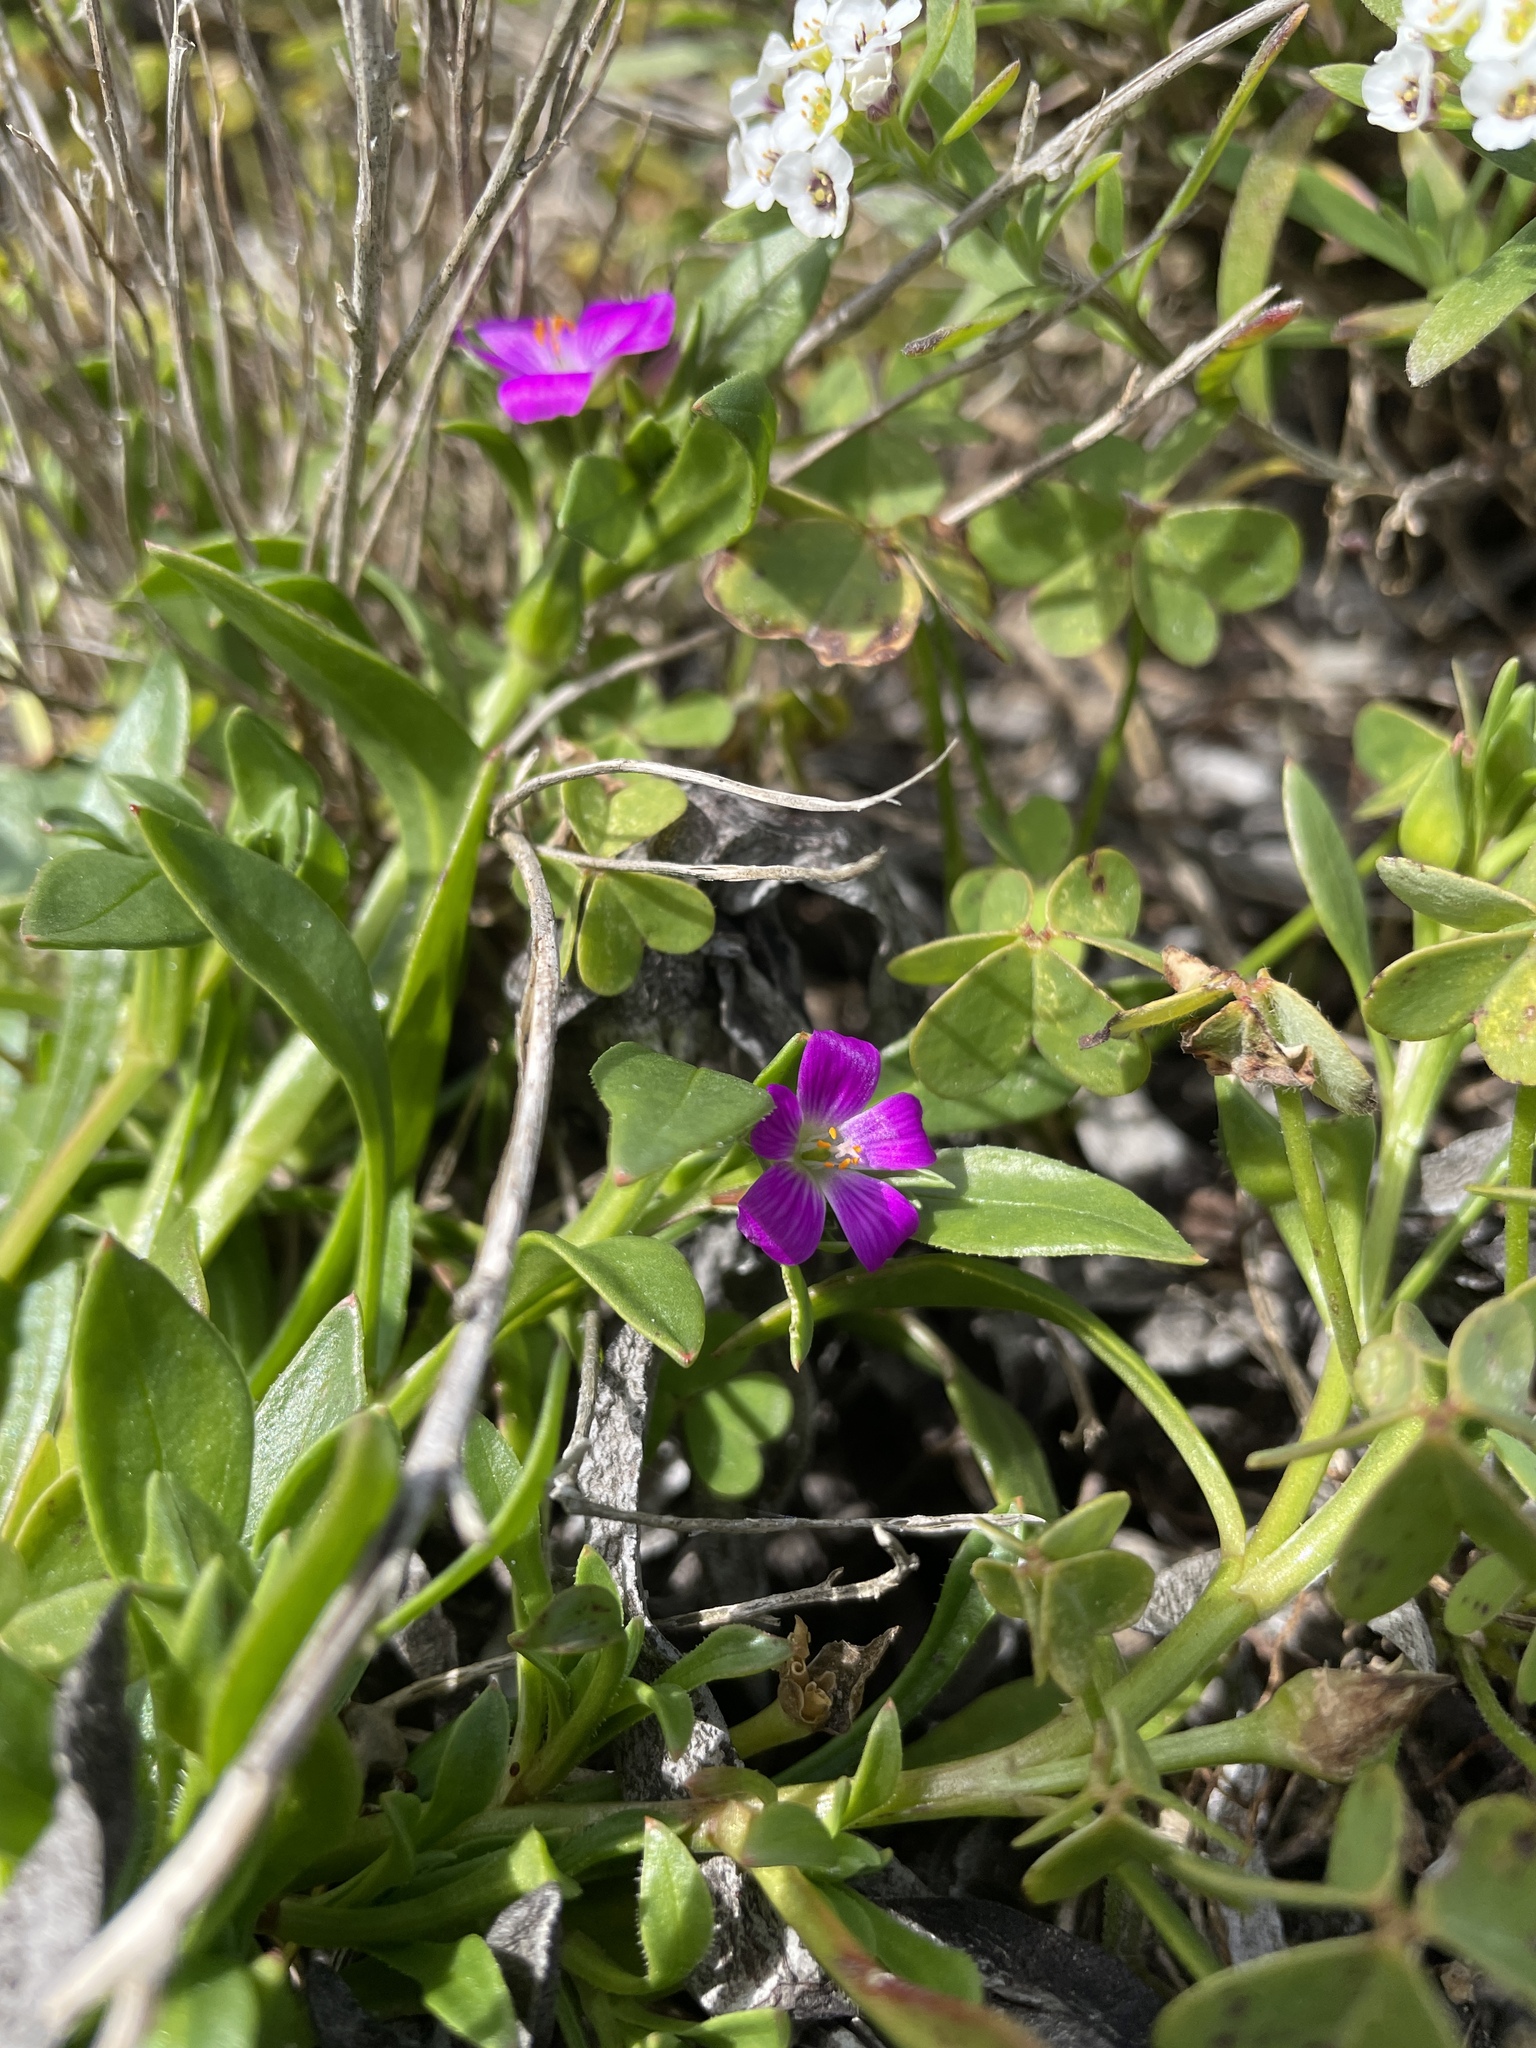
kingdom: Plantae
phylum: Tracheophyta
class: Magnoliopsida
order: Caryophyllales
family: Montiaceae
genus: Calandrinia
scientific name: Calandrinia menziesii
